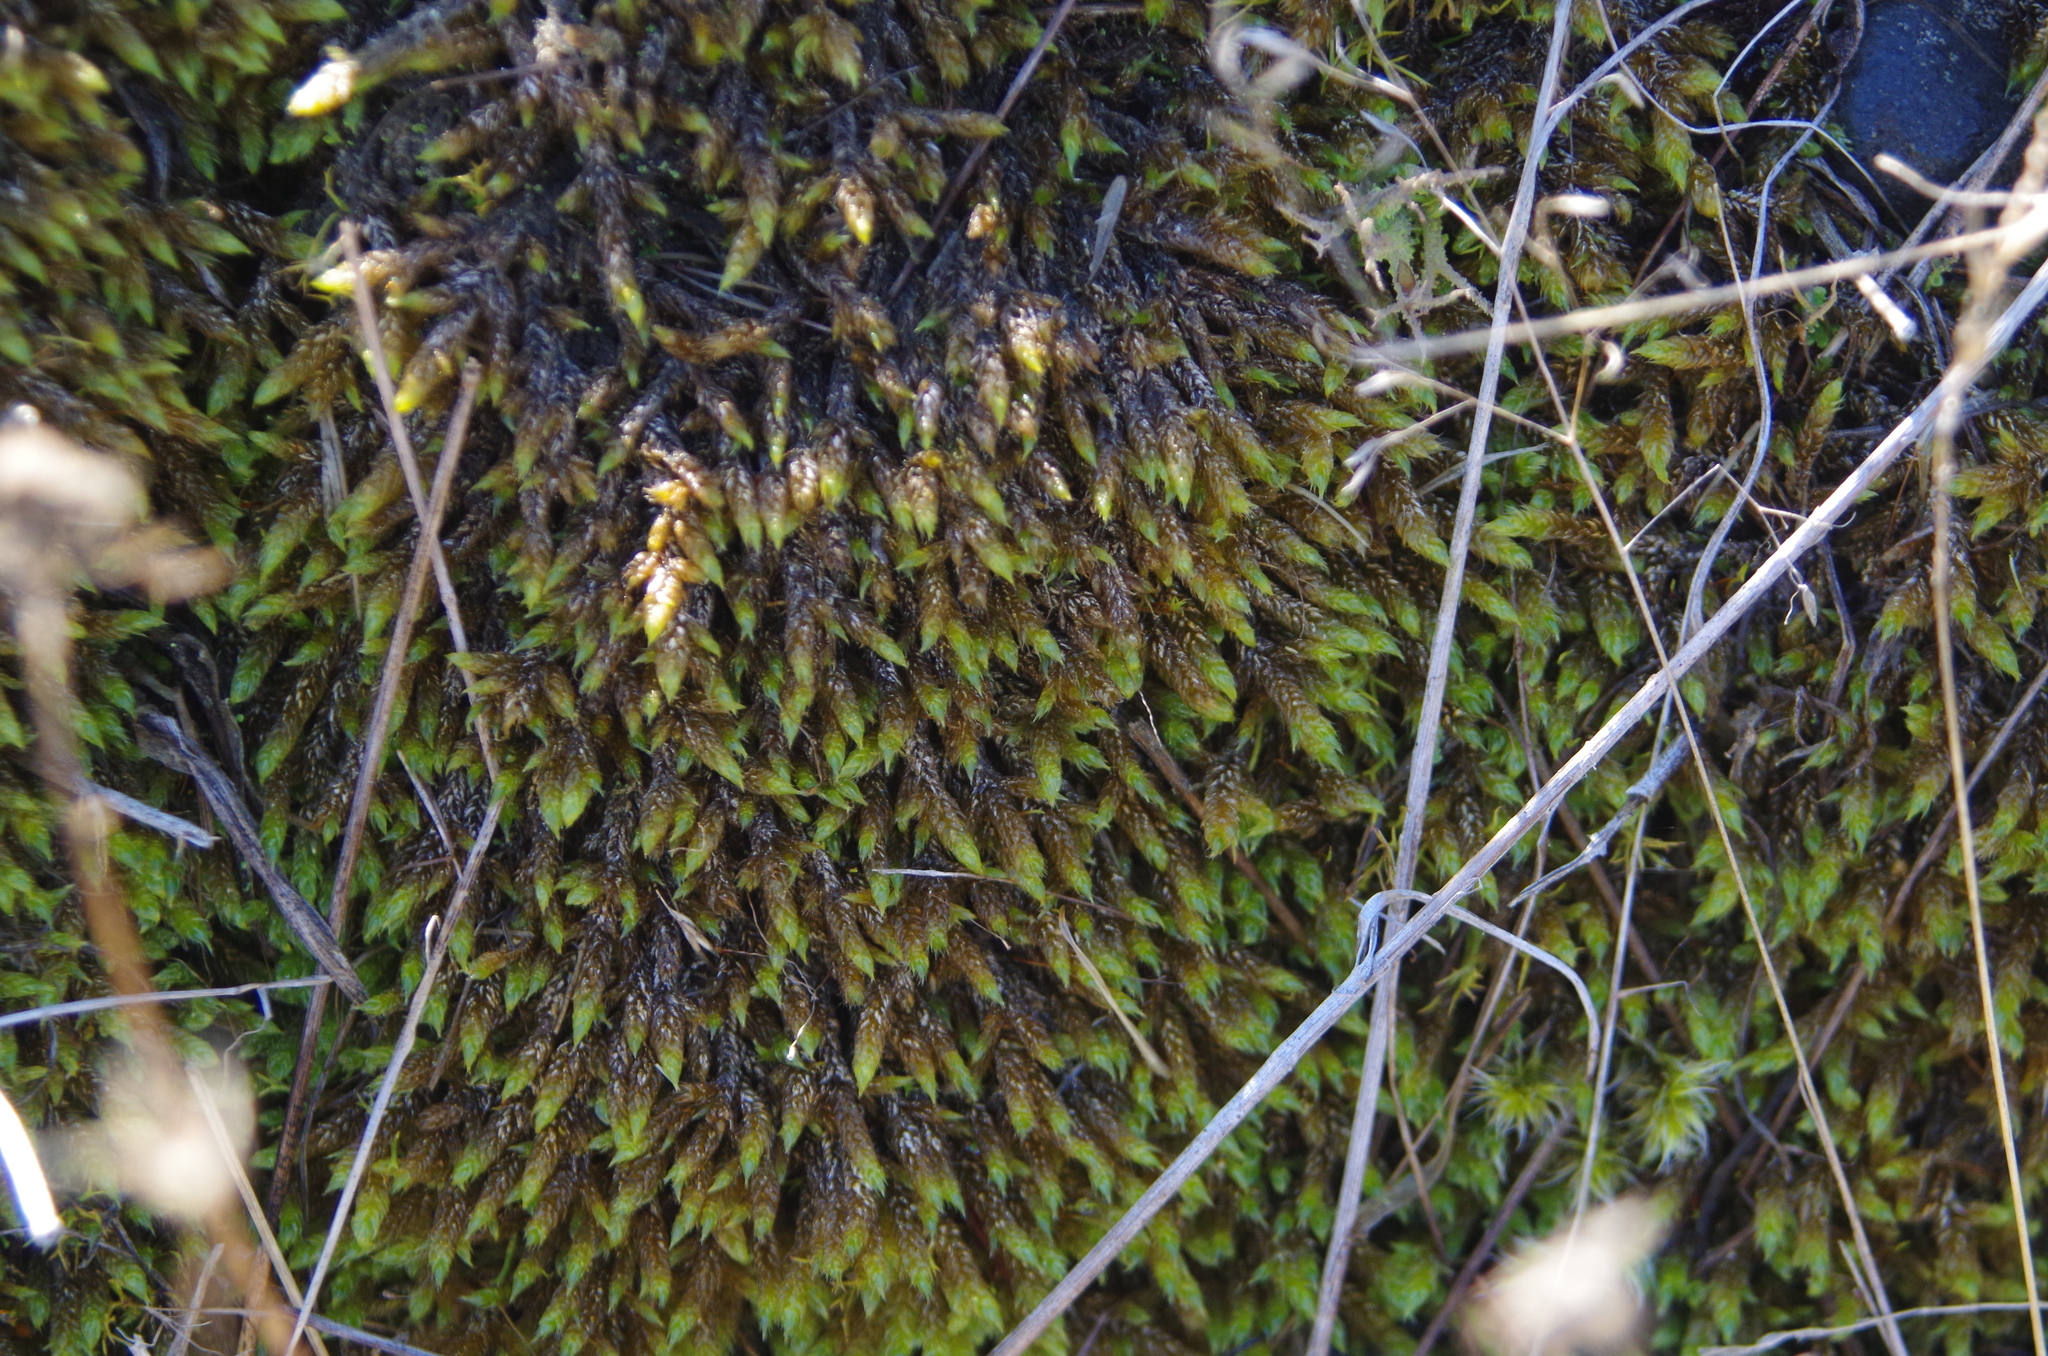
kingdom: Plantae
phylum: Bryophyta
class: Bryopsida
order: Hedwigiales
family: Hedwigiaceae
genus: Rhacocarpus
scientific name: Rhacocarpus purpurascens
